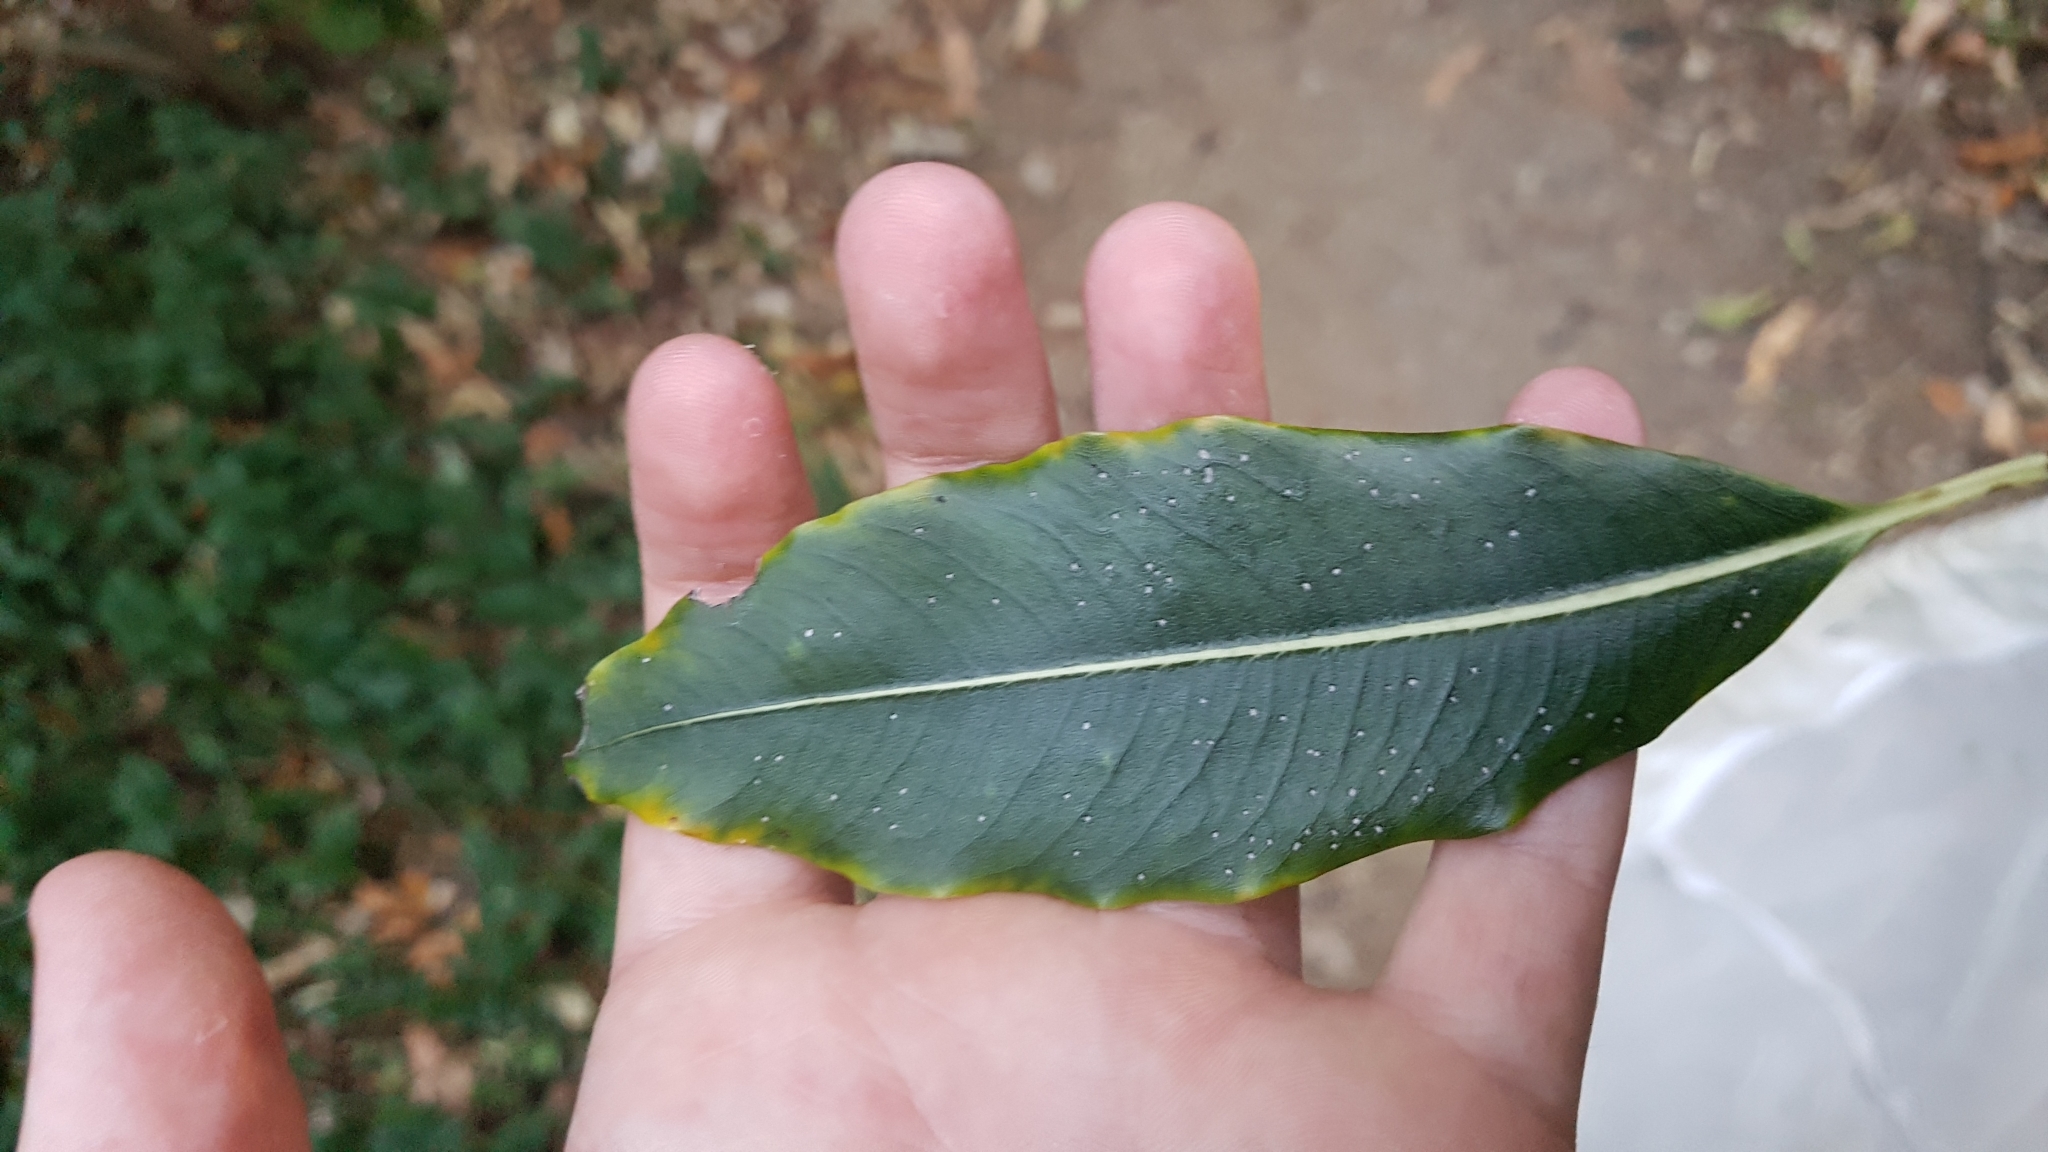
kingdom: Plantae
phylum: Tracheophyta
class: Magnoliopsida
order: Apiales
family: Pittosporaceae
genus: Pittosporum
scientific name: Pittosporum eugenioides
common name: Lemonwood
